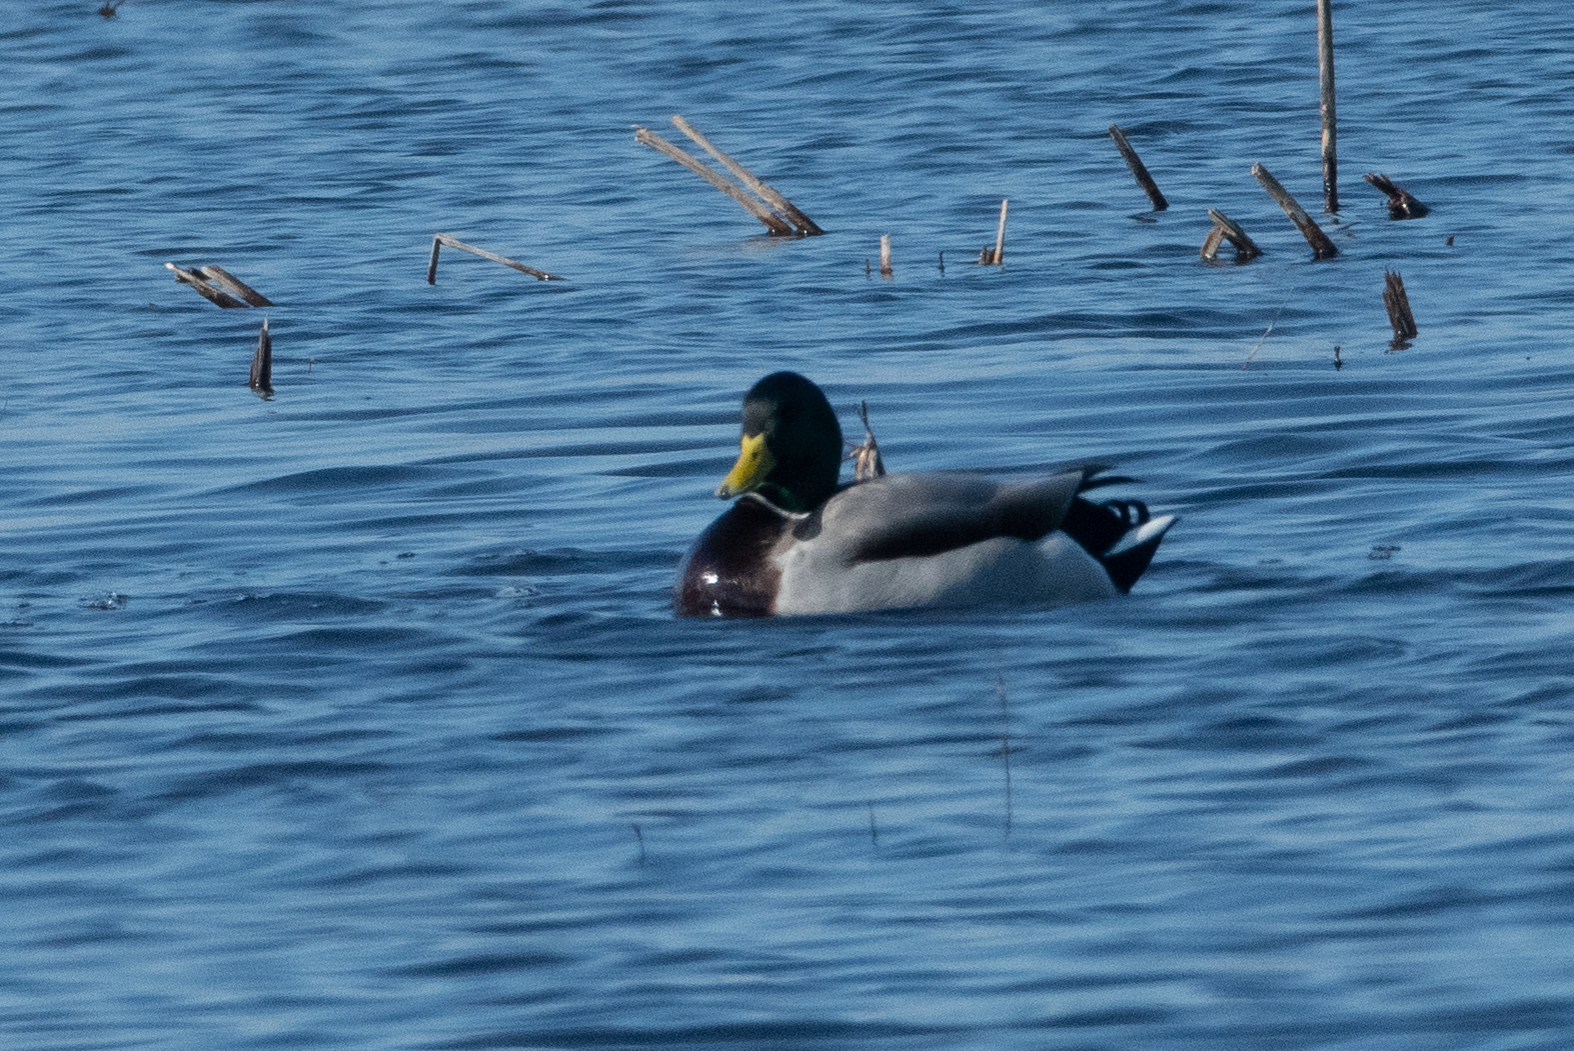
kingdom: Animalia
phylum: Chordata
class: Aves
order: Anseriformes
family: Anatidae
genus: Anas
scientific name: Anas platyrhynchos
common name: Mallard
